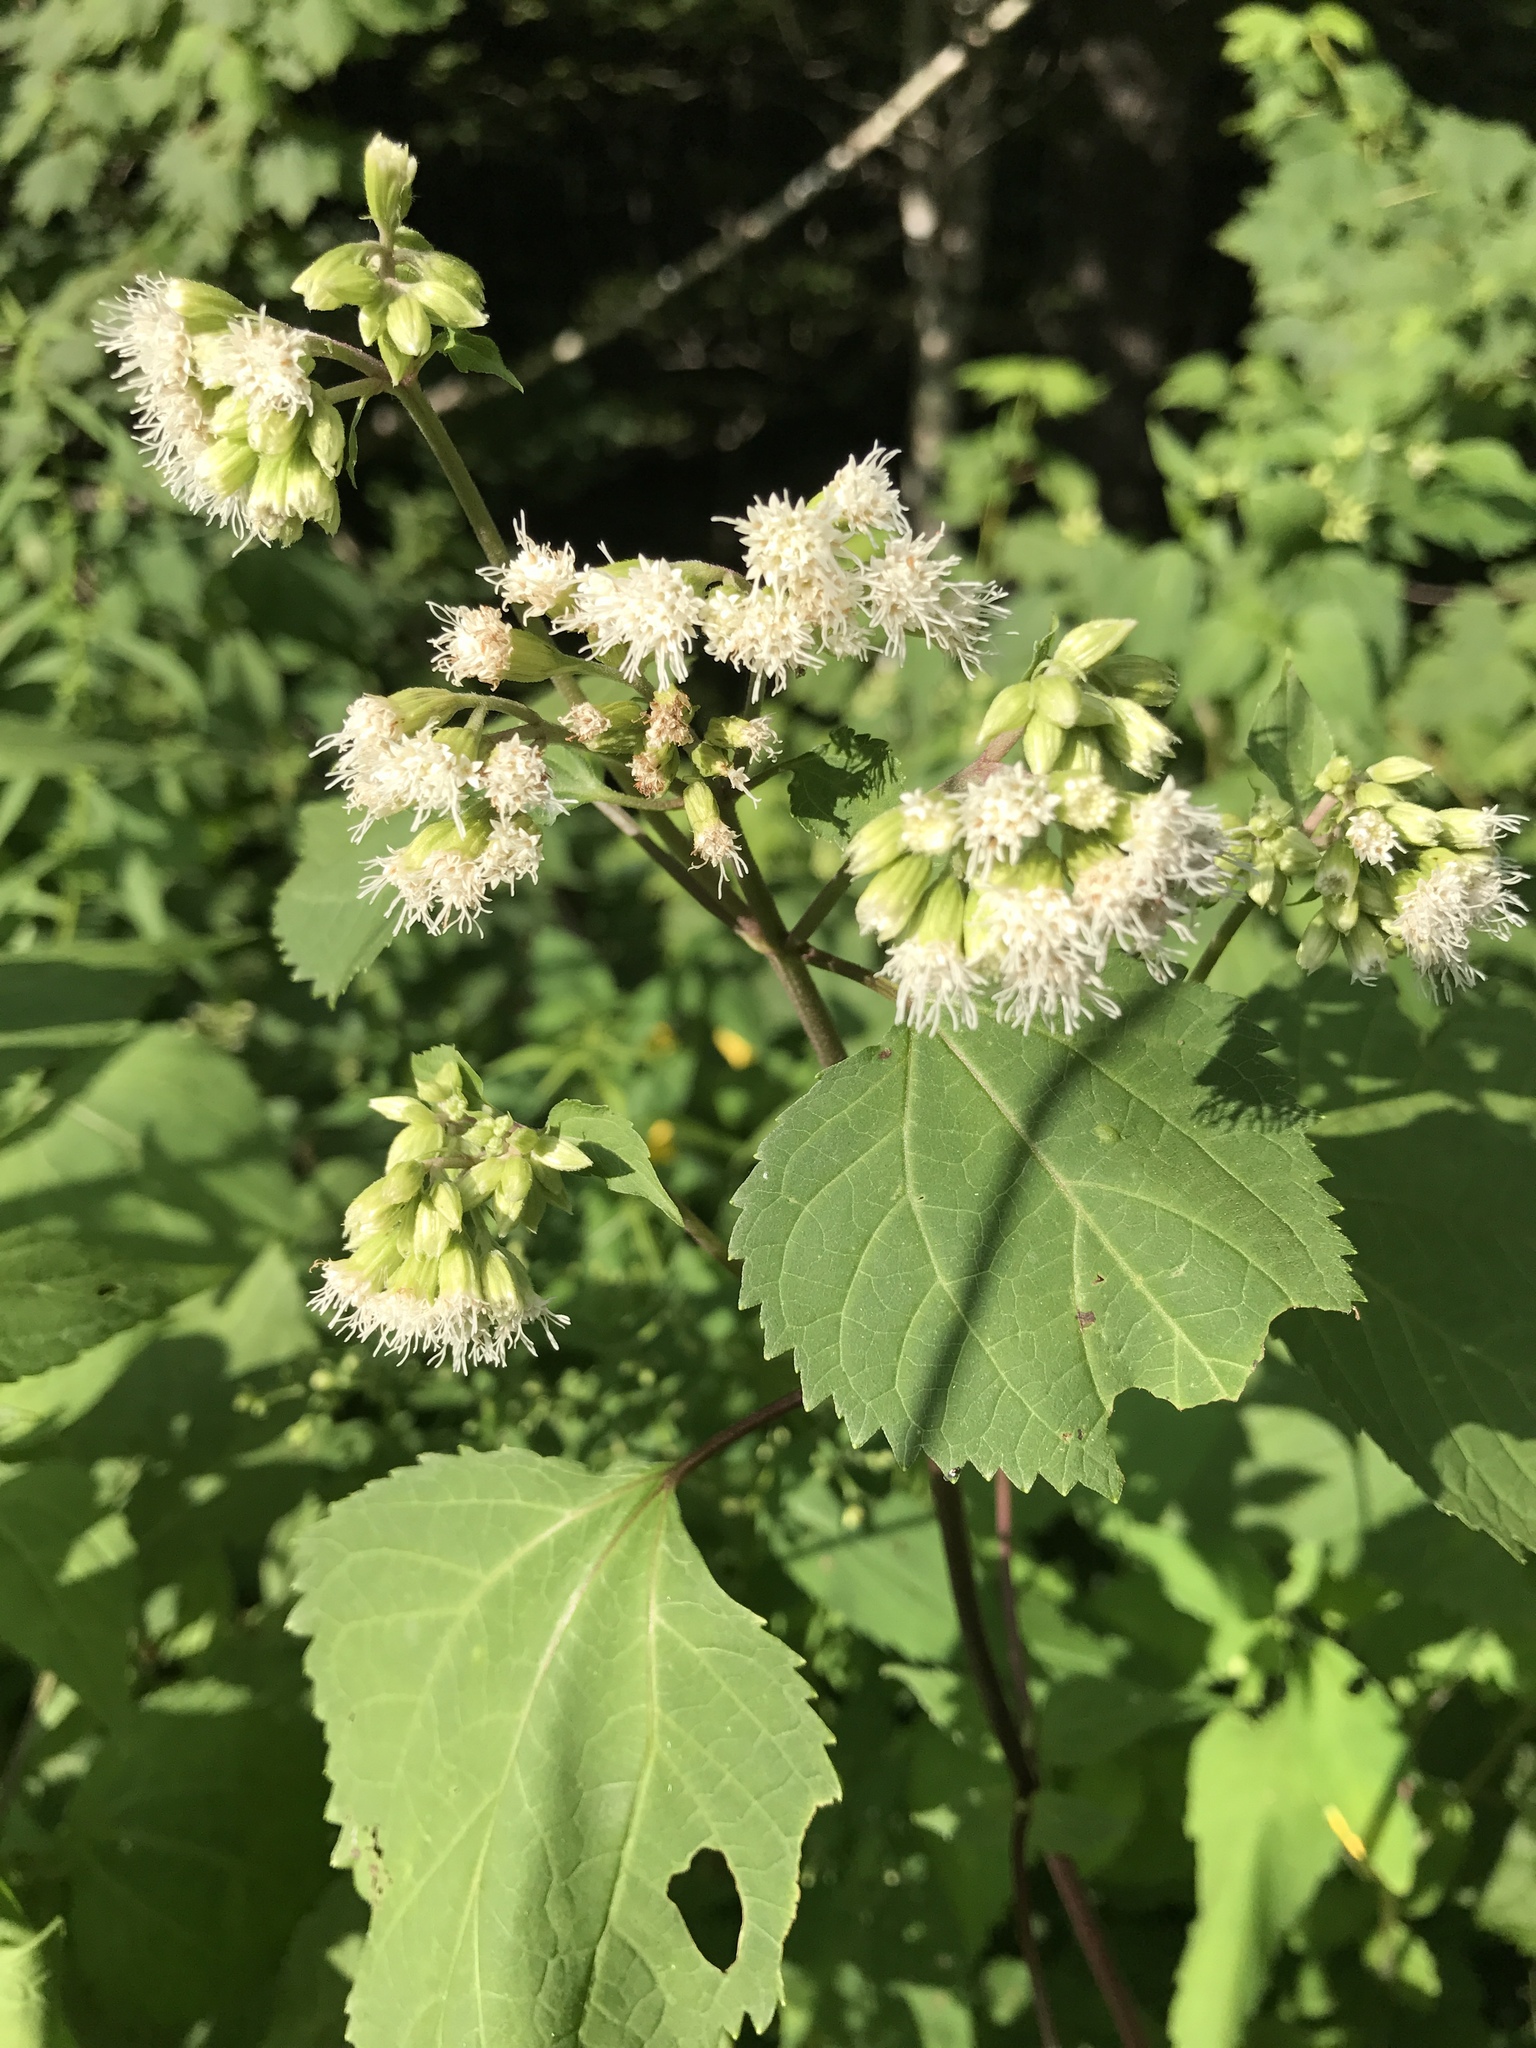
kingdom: Plantae
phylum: Tracheophyta
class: Magnoliopsida
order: Asterales
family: Asteraceae
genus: Ageratina
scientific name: Ageratina roanensis
